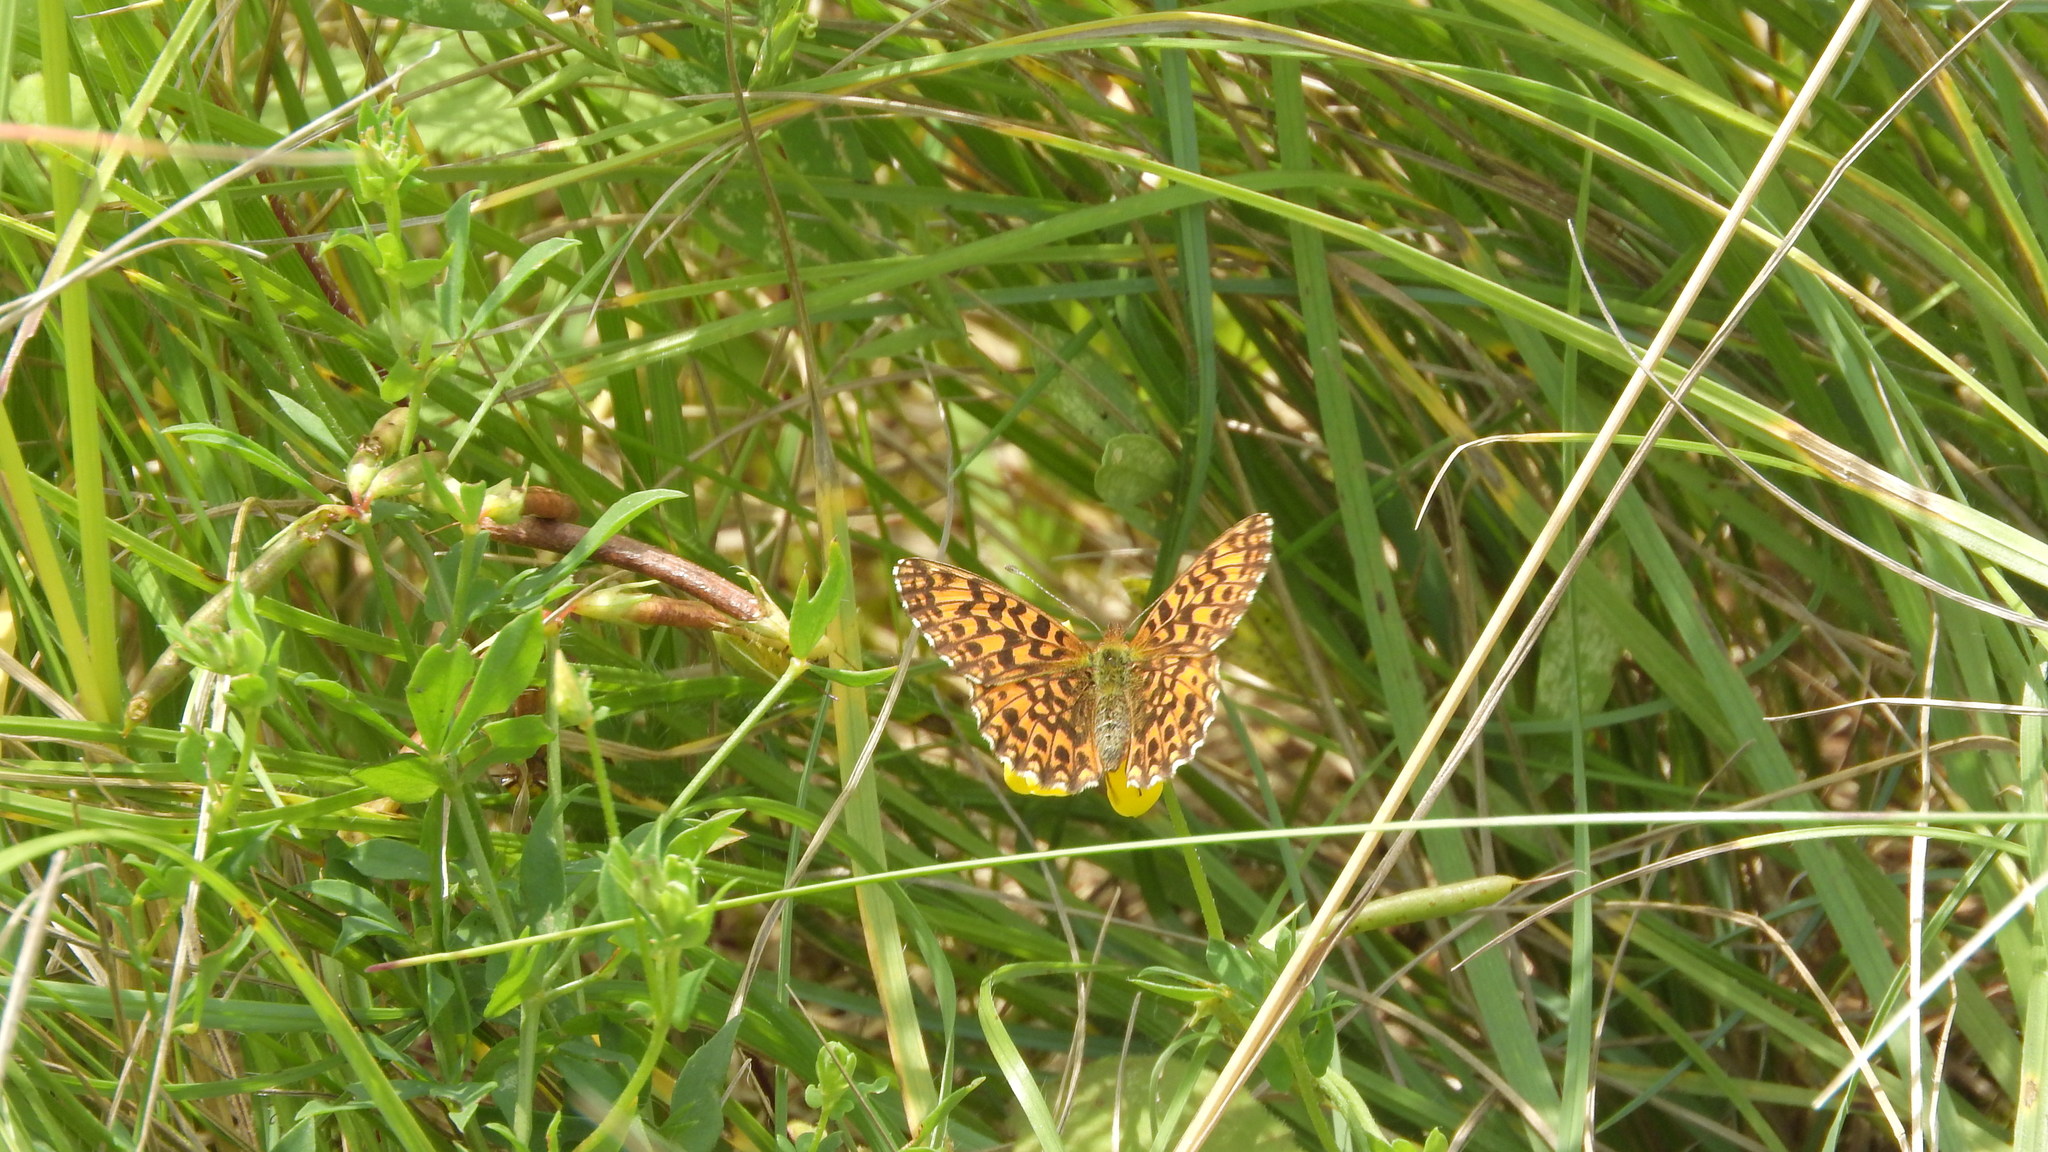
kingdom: Animalia
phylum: Arthropoda
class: Insecta
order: Lepidoptera
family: Nymphalidae
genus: Boloria
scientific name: Boloria dia
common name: Weaver's fritillary
